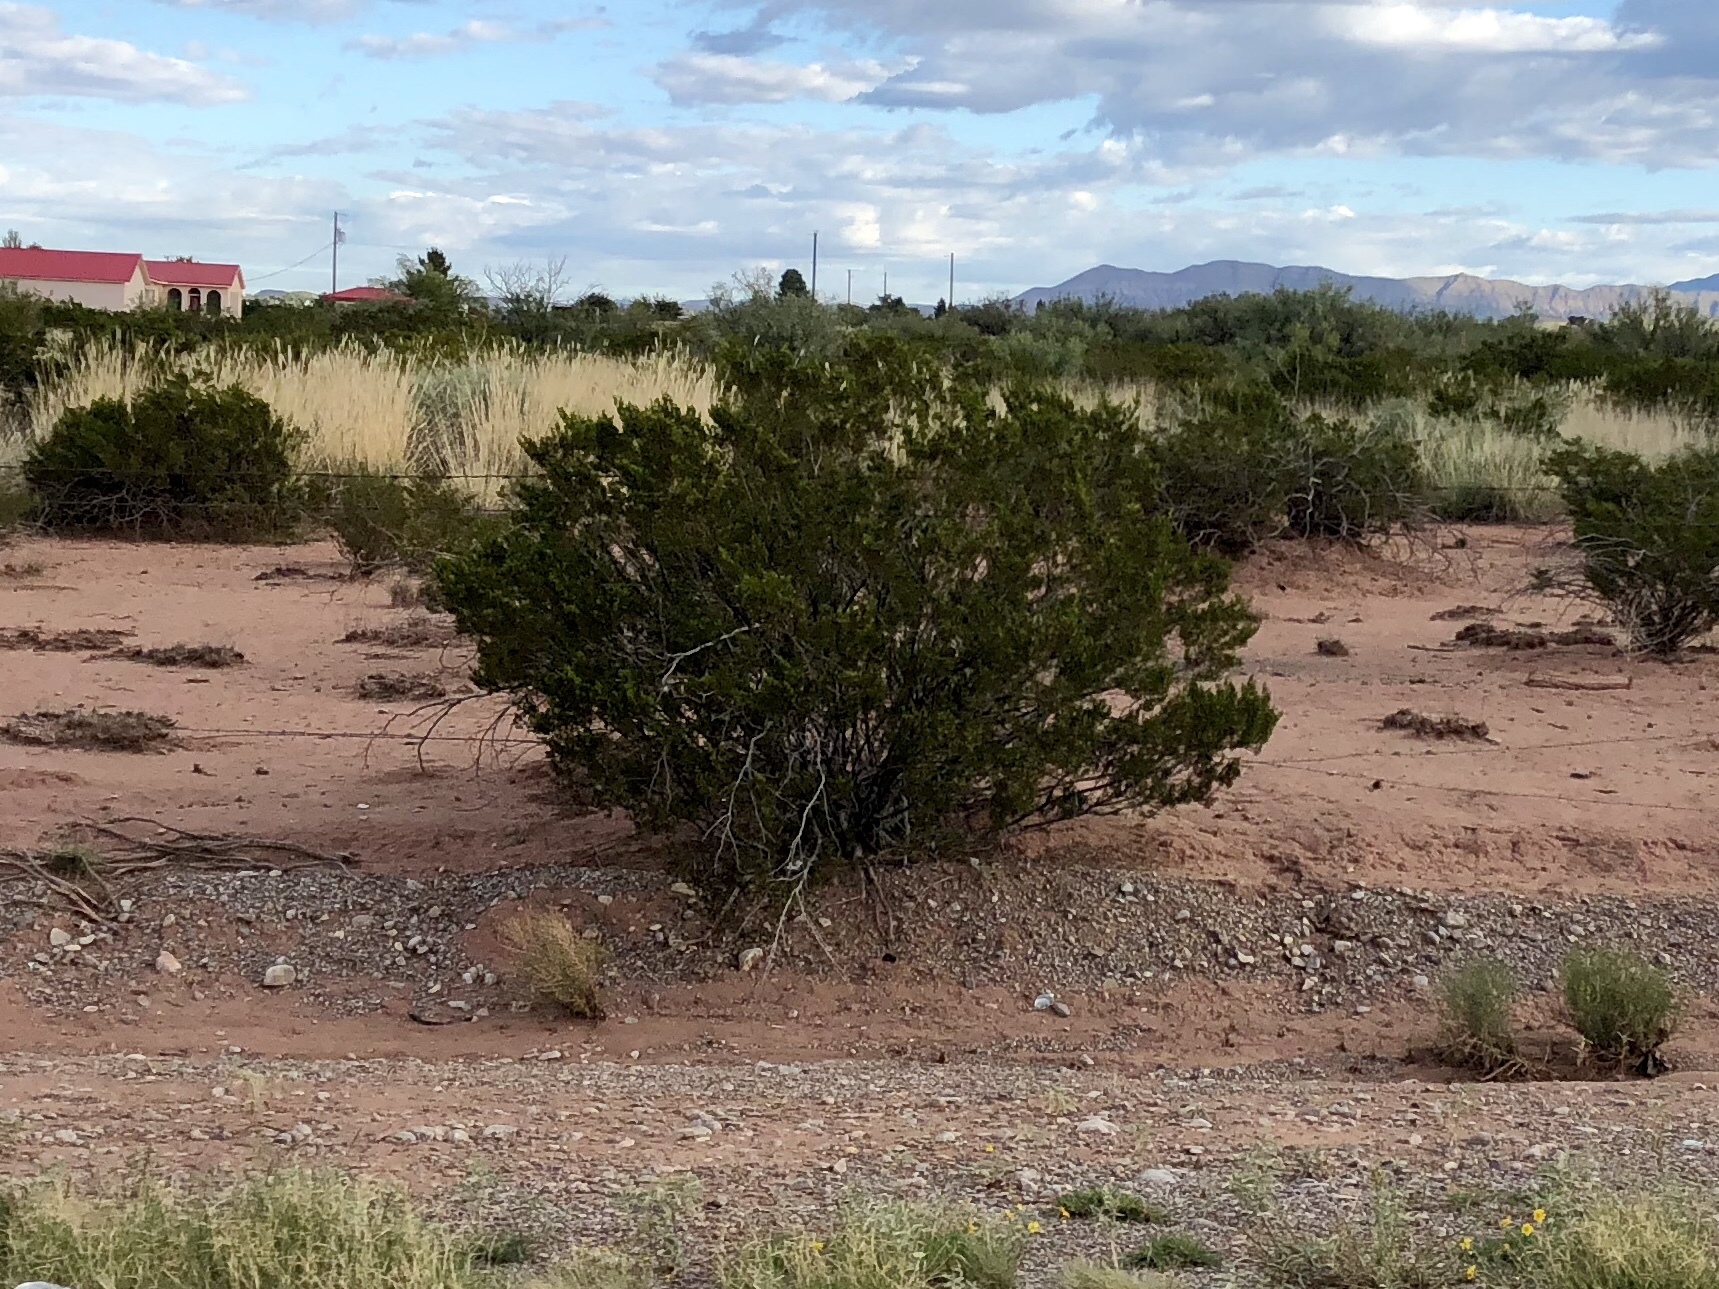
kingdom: Plantae
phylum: Tracheophyta
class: Magnoliopsida
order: Zygophyllales
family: Zygophyllaceae
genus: Larrea
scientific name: Larrea tridentata
